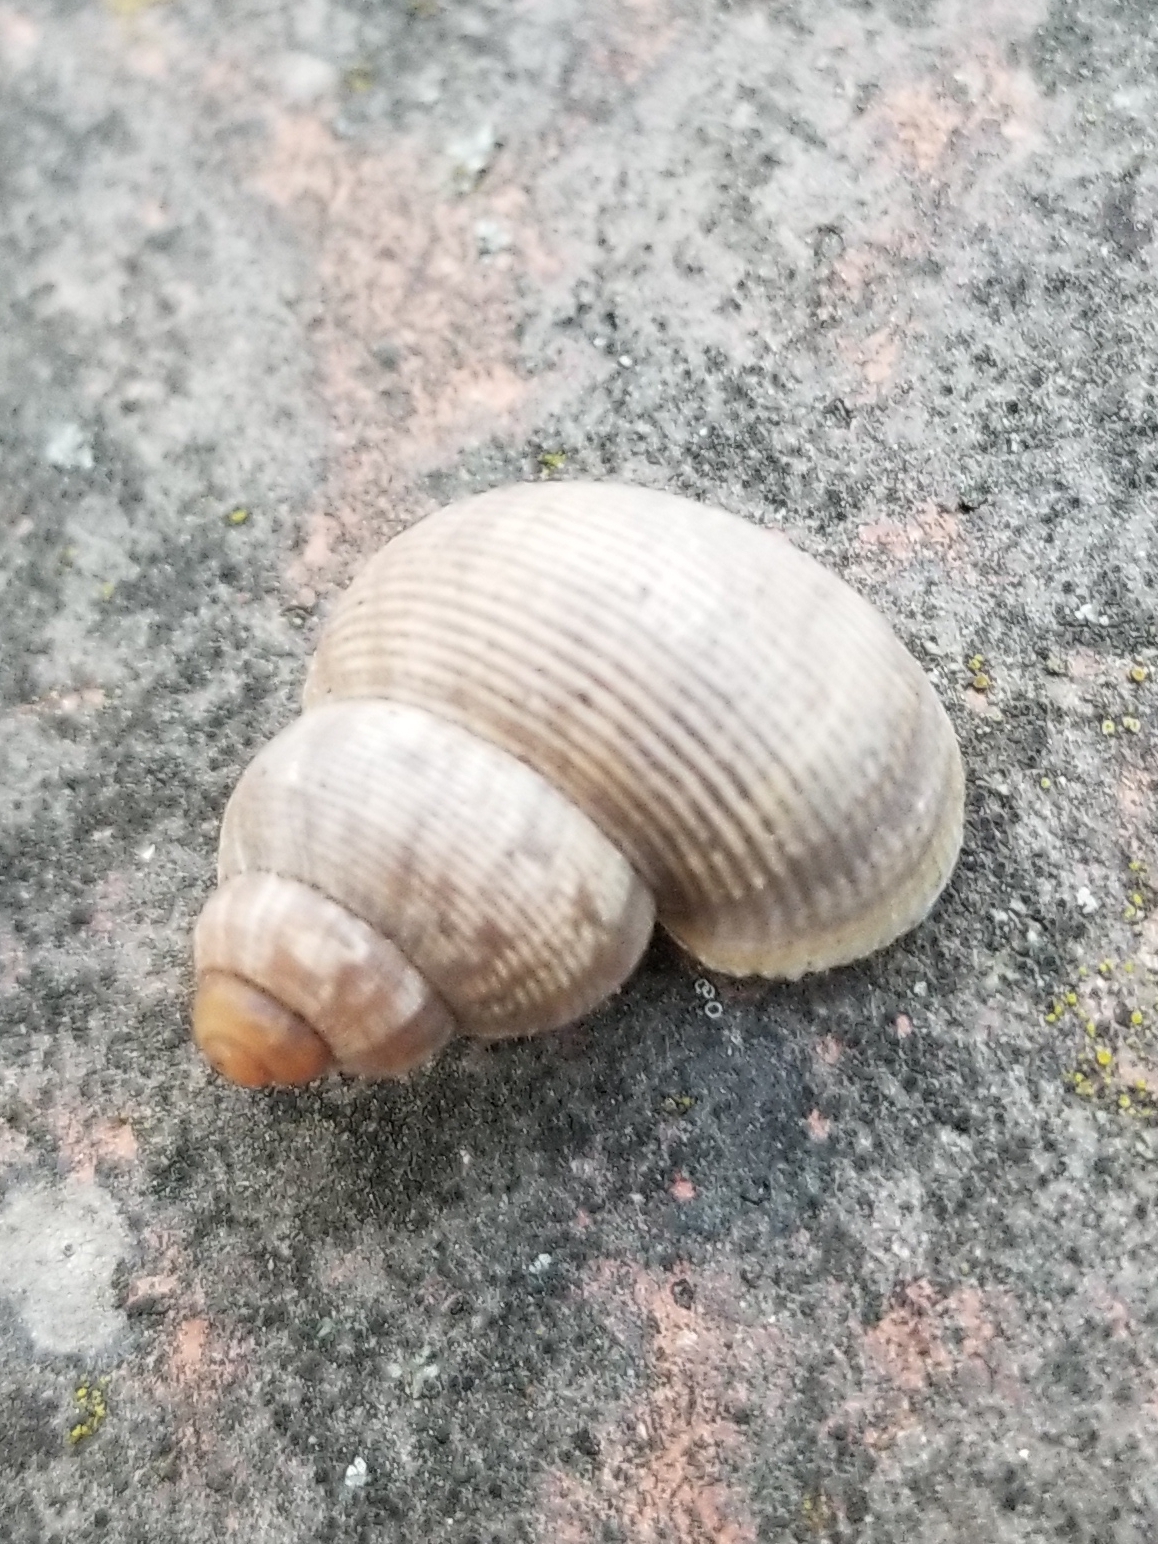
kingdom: Animalia
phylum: Mollusca
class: Gastropoda
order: Littorinimorpha
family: Pomatiidae
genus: Pomatias
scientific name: Pomatias elegans
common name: Red-mouthed snail
